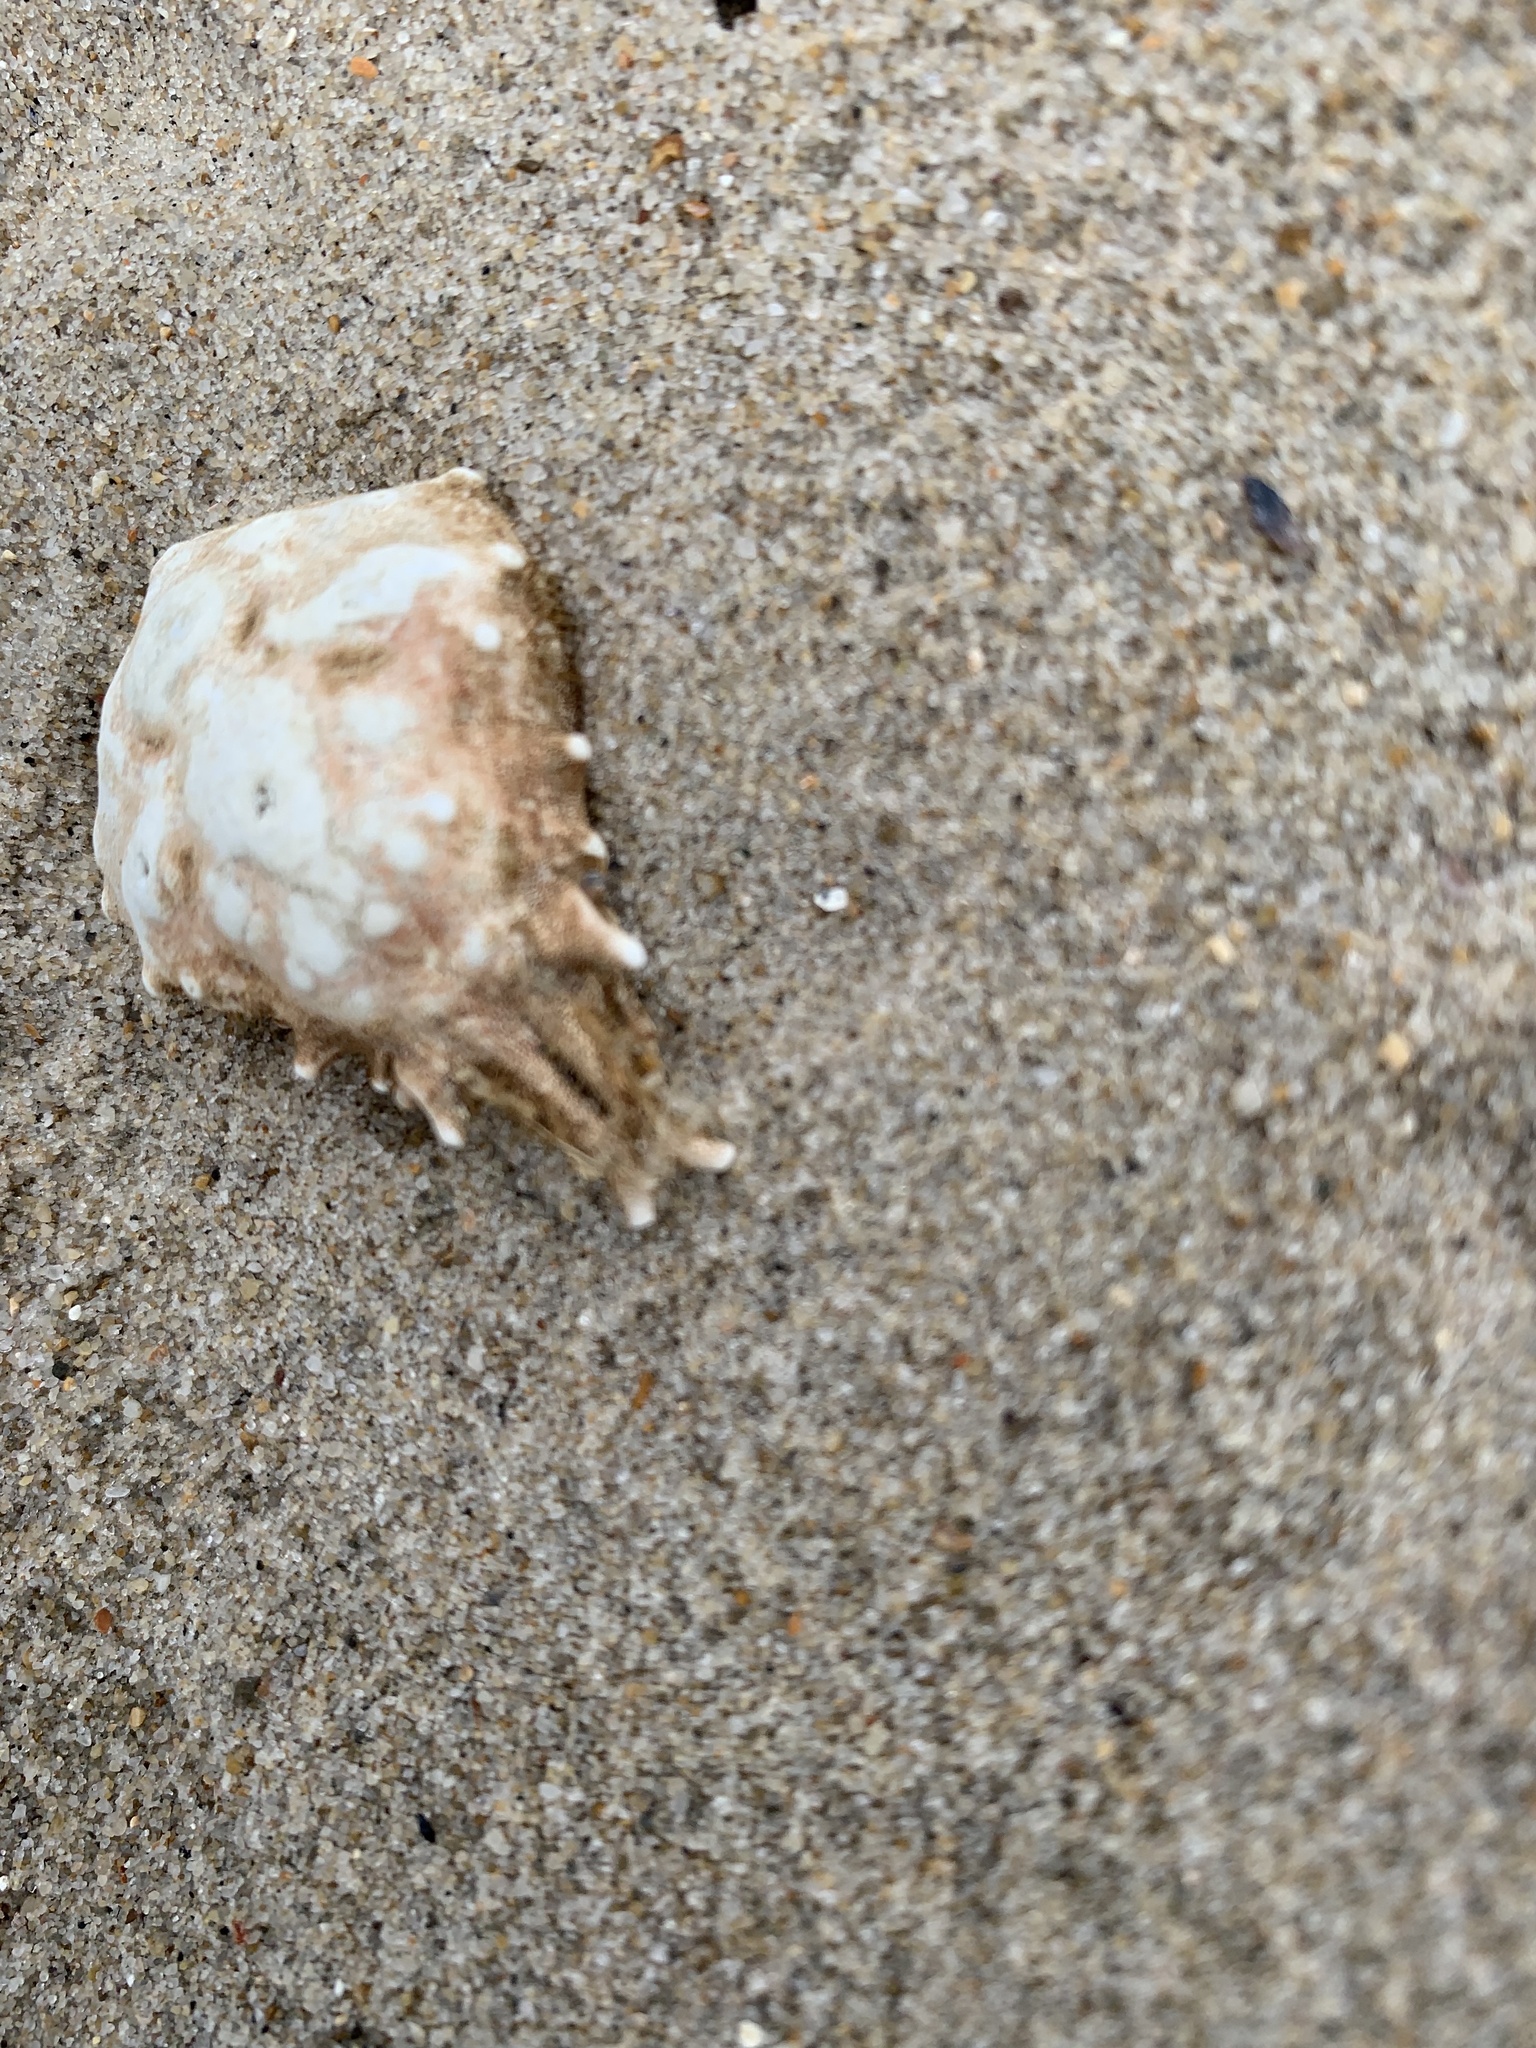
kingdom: Animalia
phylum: Arthropoda
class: Malacostraca
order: Decapoda
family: Epialtidae
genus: Pisa
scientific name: Pisa tetraodon
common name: Four-horned spider crab
